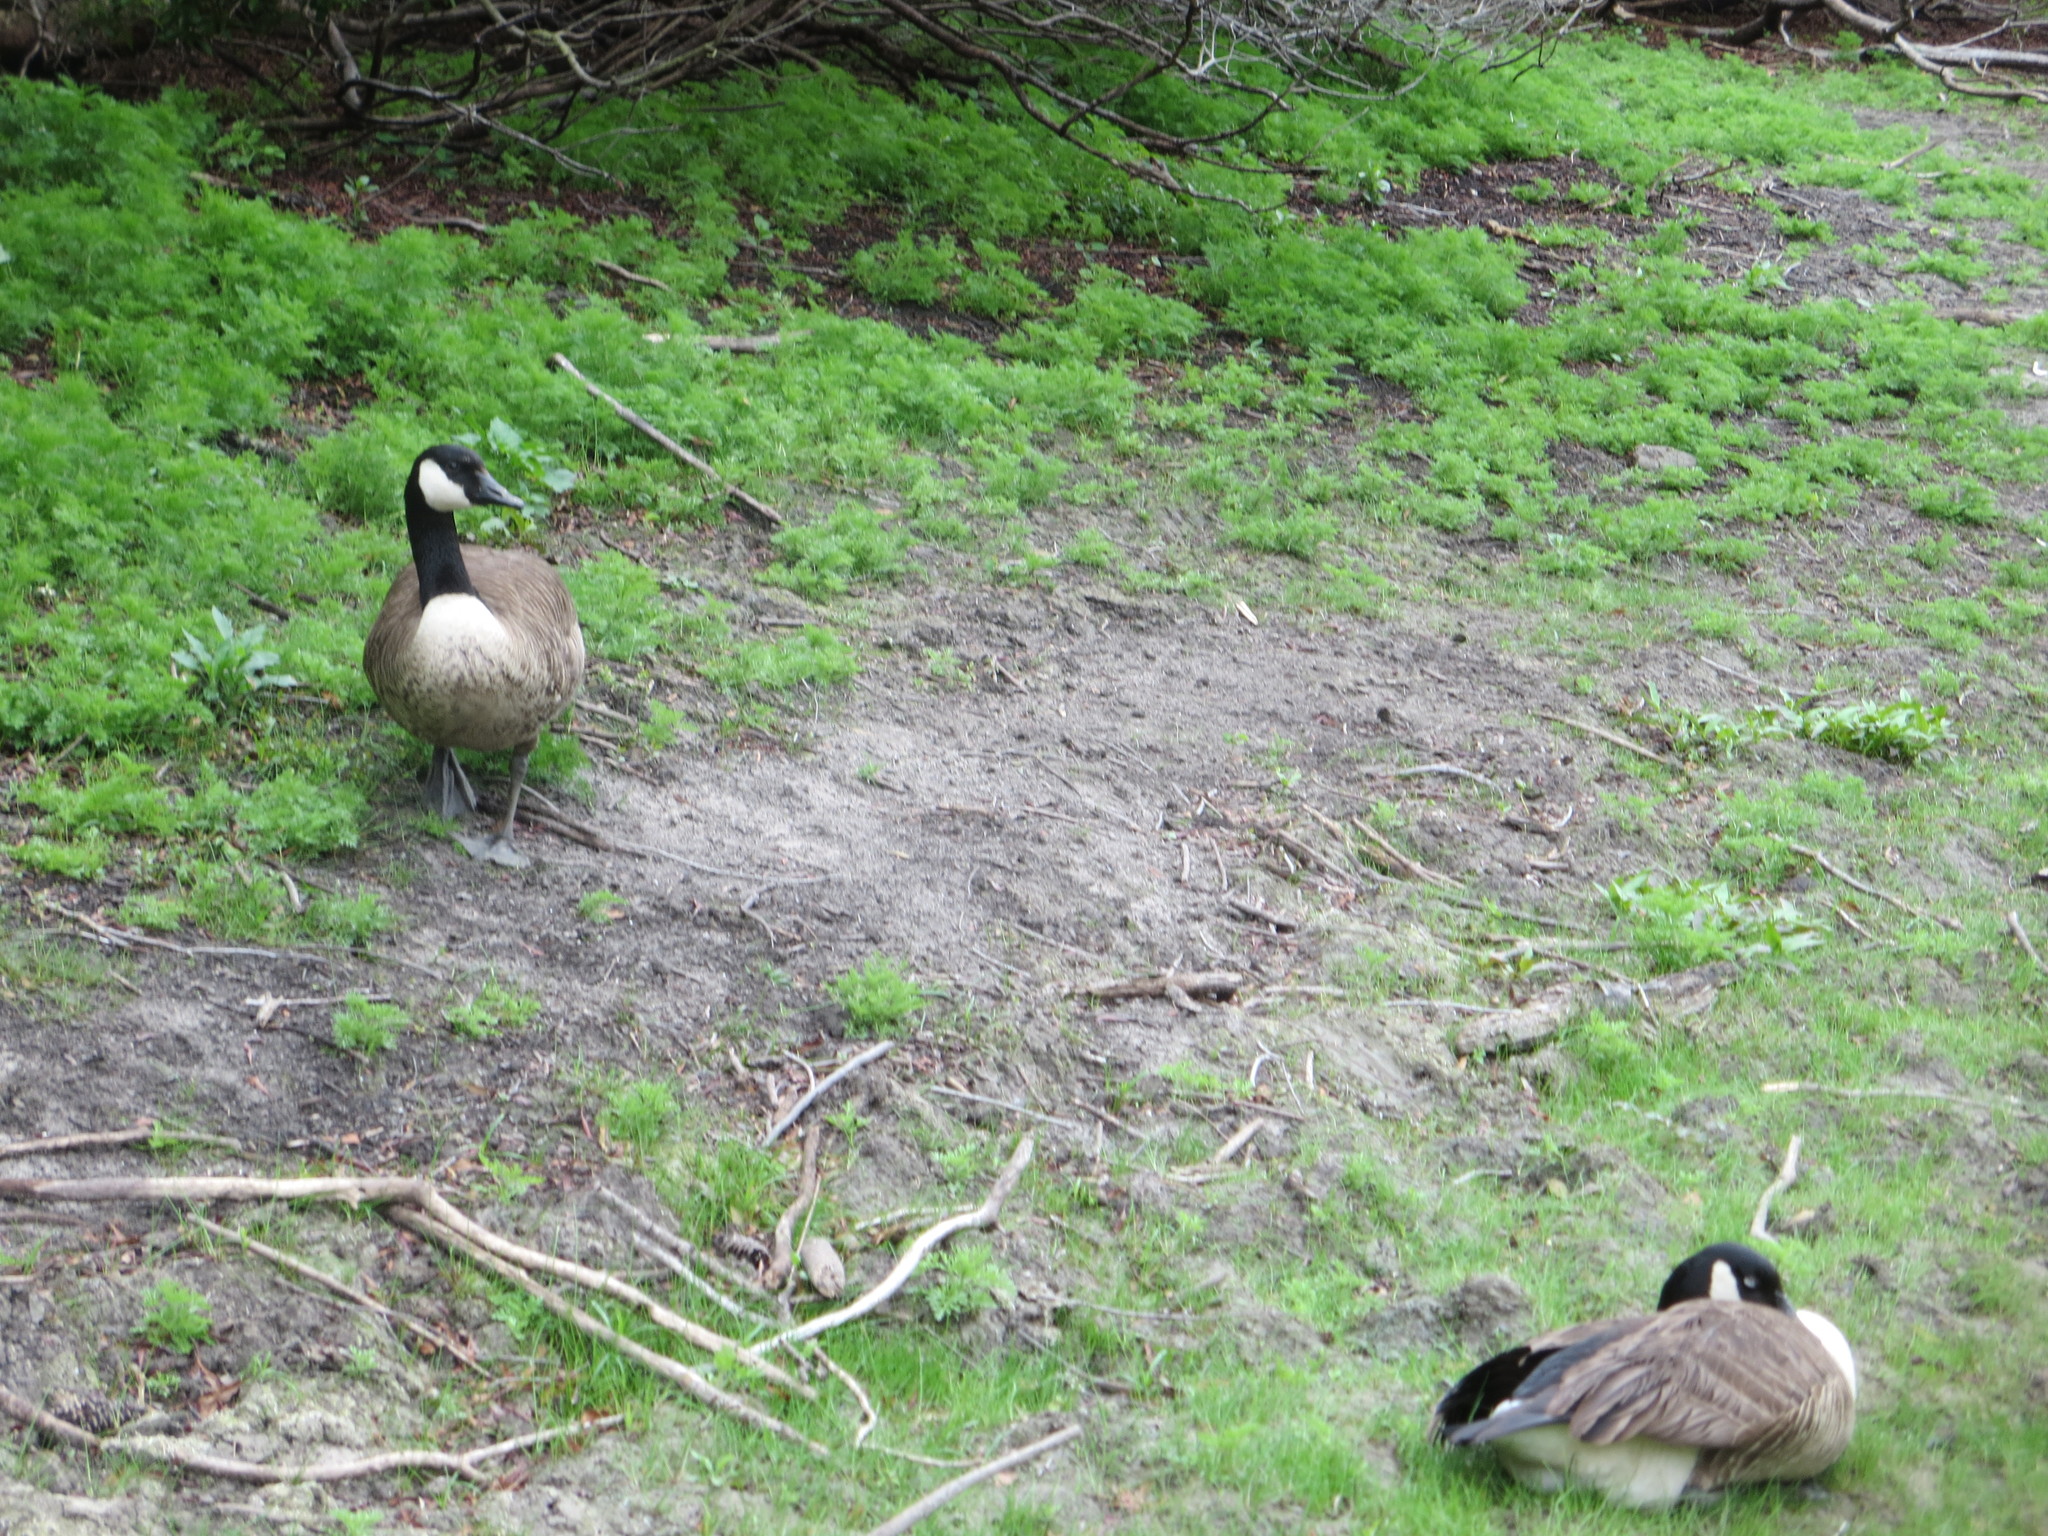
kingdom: Animalia
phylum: Chordata
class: Aves
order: Anseriformes
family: Anatidae
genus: Branta
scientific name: Branta canadensis
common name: Canada goose
